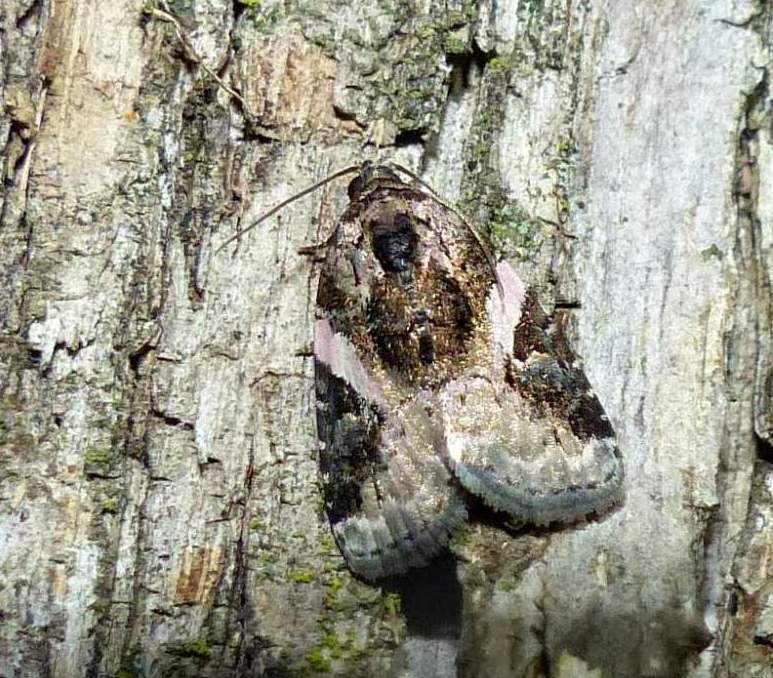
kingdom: Animalia
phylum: Arthropoda
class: Insecta
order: Lepidoptera
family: Noctuidae
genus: Pseudeustrotia
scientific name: Pseudeustrotia carneola
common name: Pink-barred lithacodia moth
